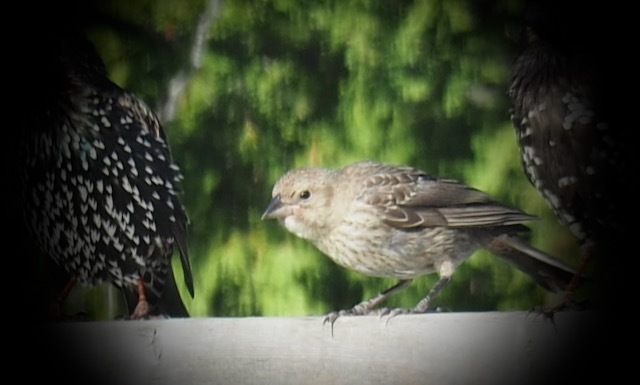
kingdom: Animalia
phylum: Chordata
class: Aves
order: Passeriformes
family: Icteridae
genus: Molothrus
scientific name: Molothrus ater
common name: Brown-headed cowbird
